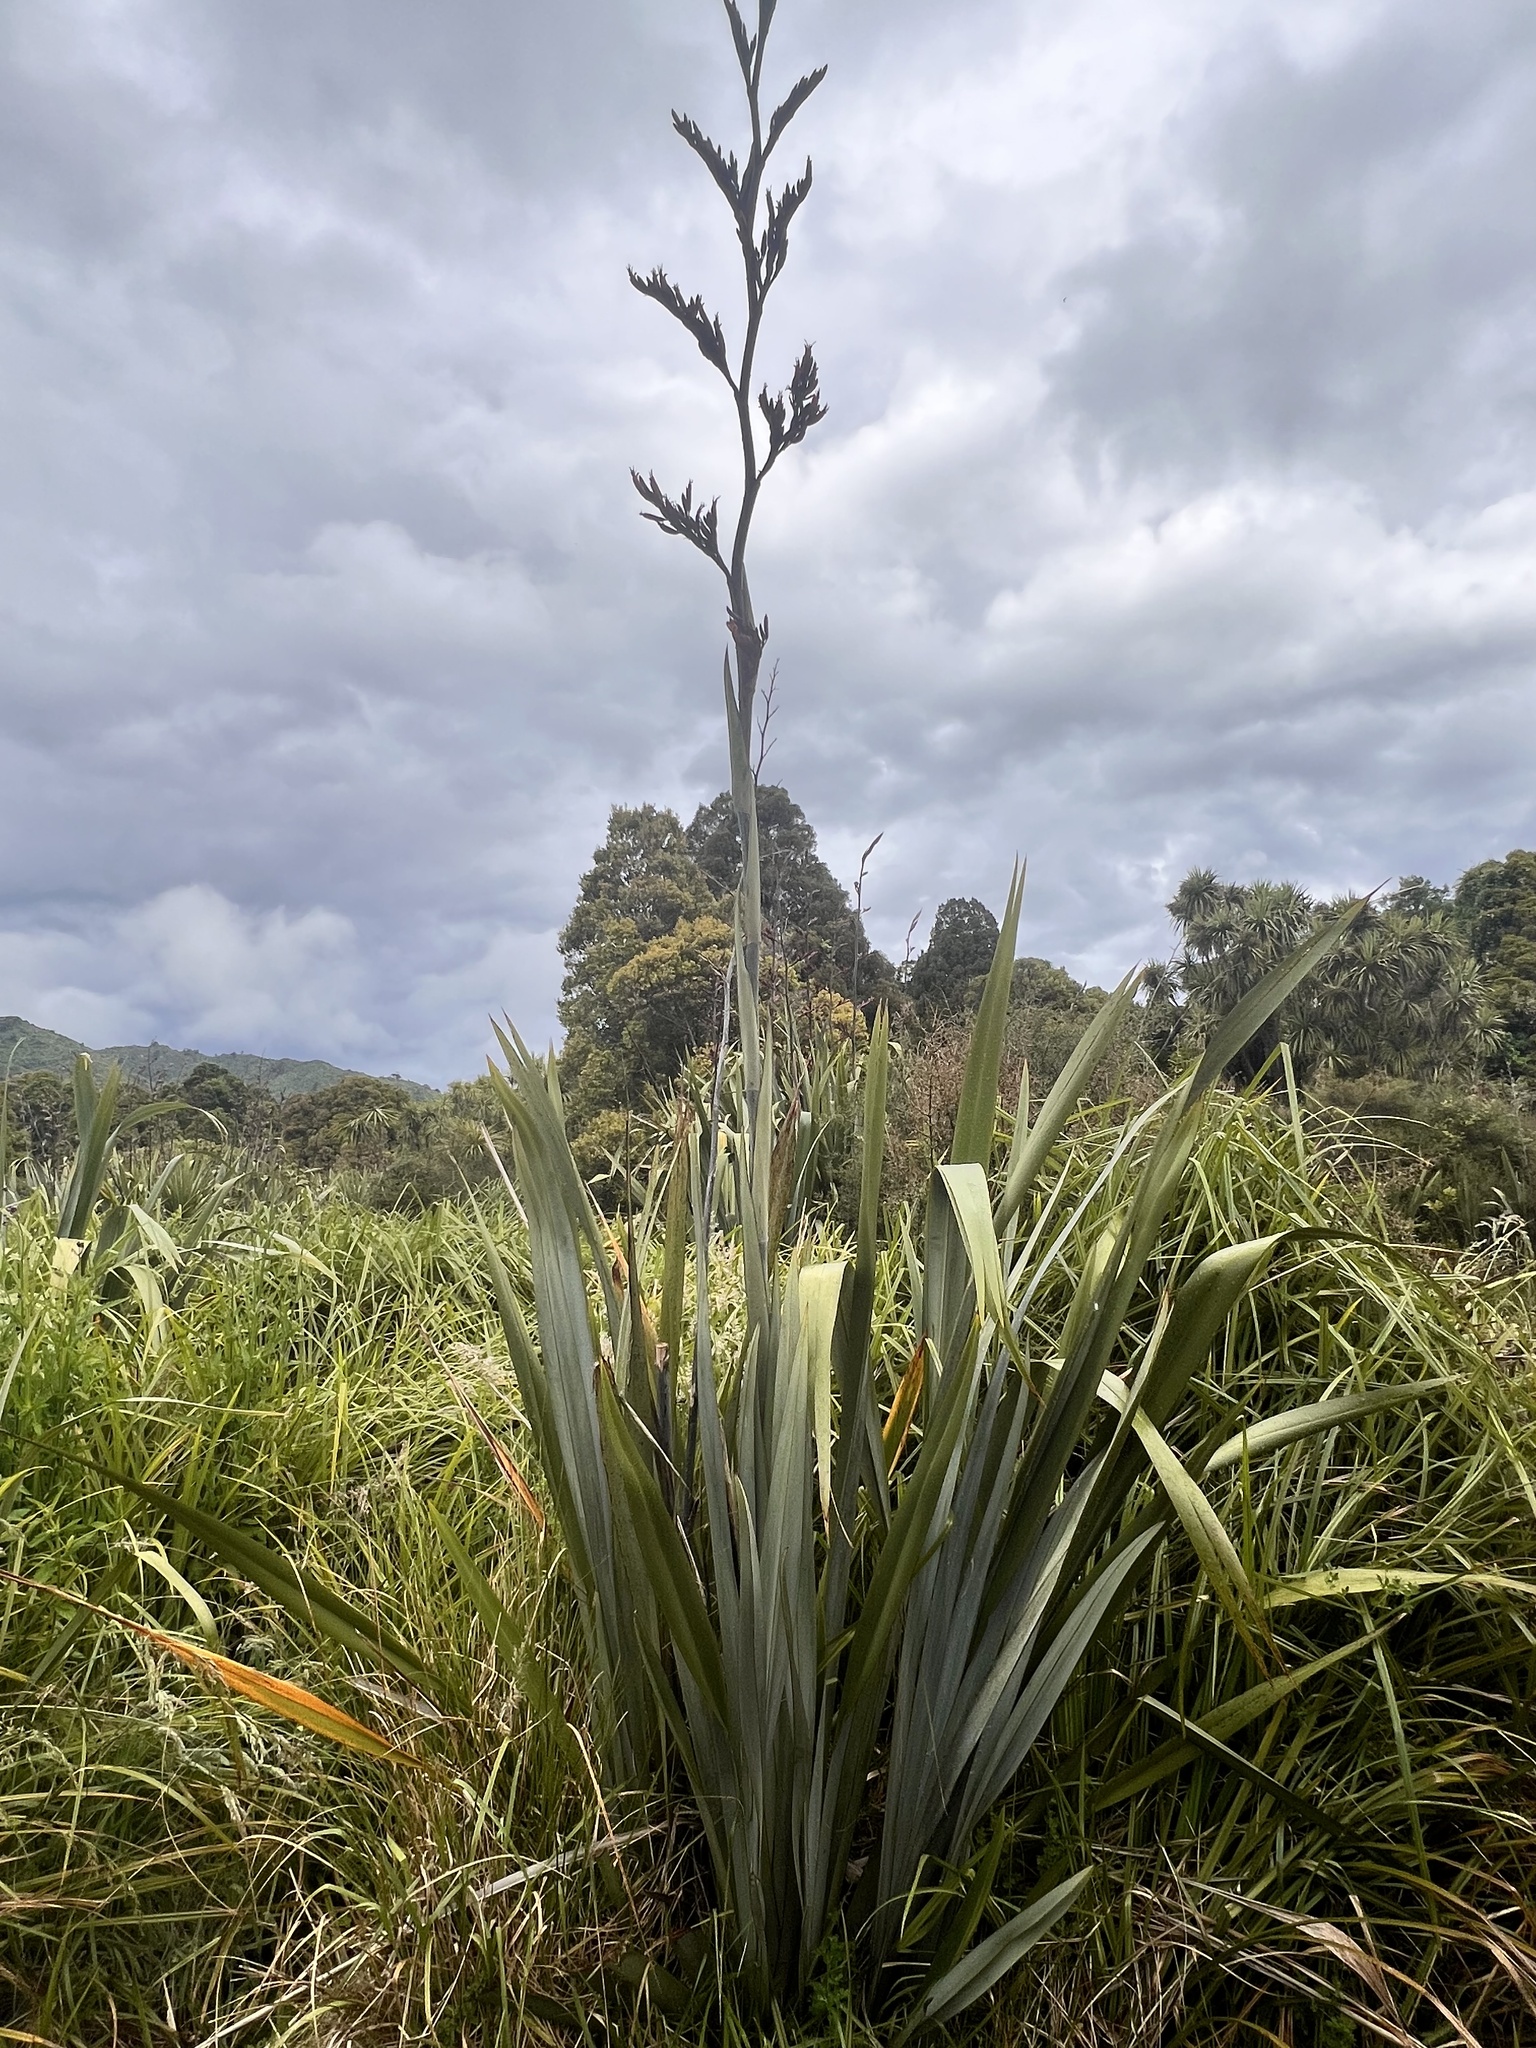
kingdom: Plantae
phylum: Tracheophyta
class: Liliopsida
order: Asparagales
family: Asphodelaceae
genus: Phormium
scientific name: Phormium tenax
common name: New zealand flax
